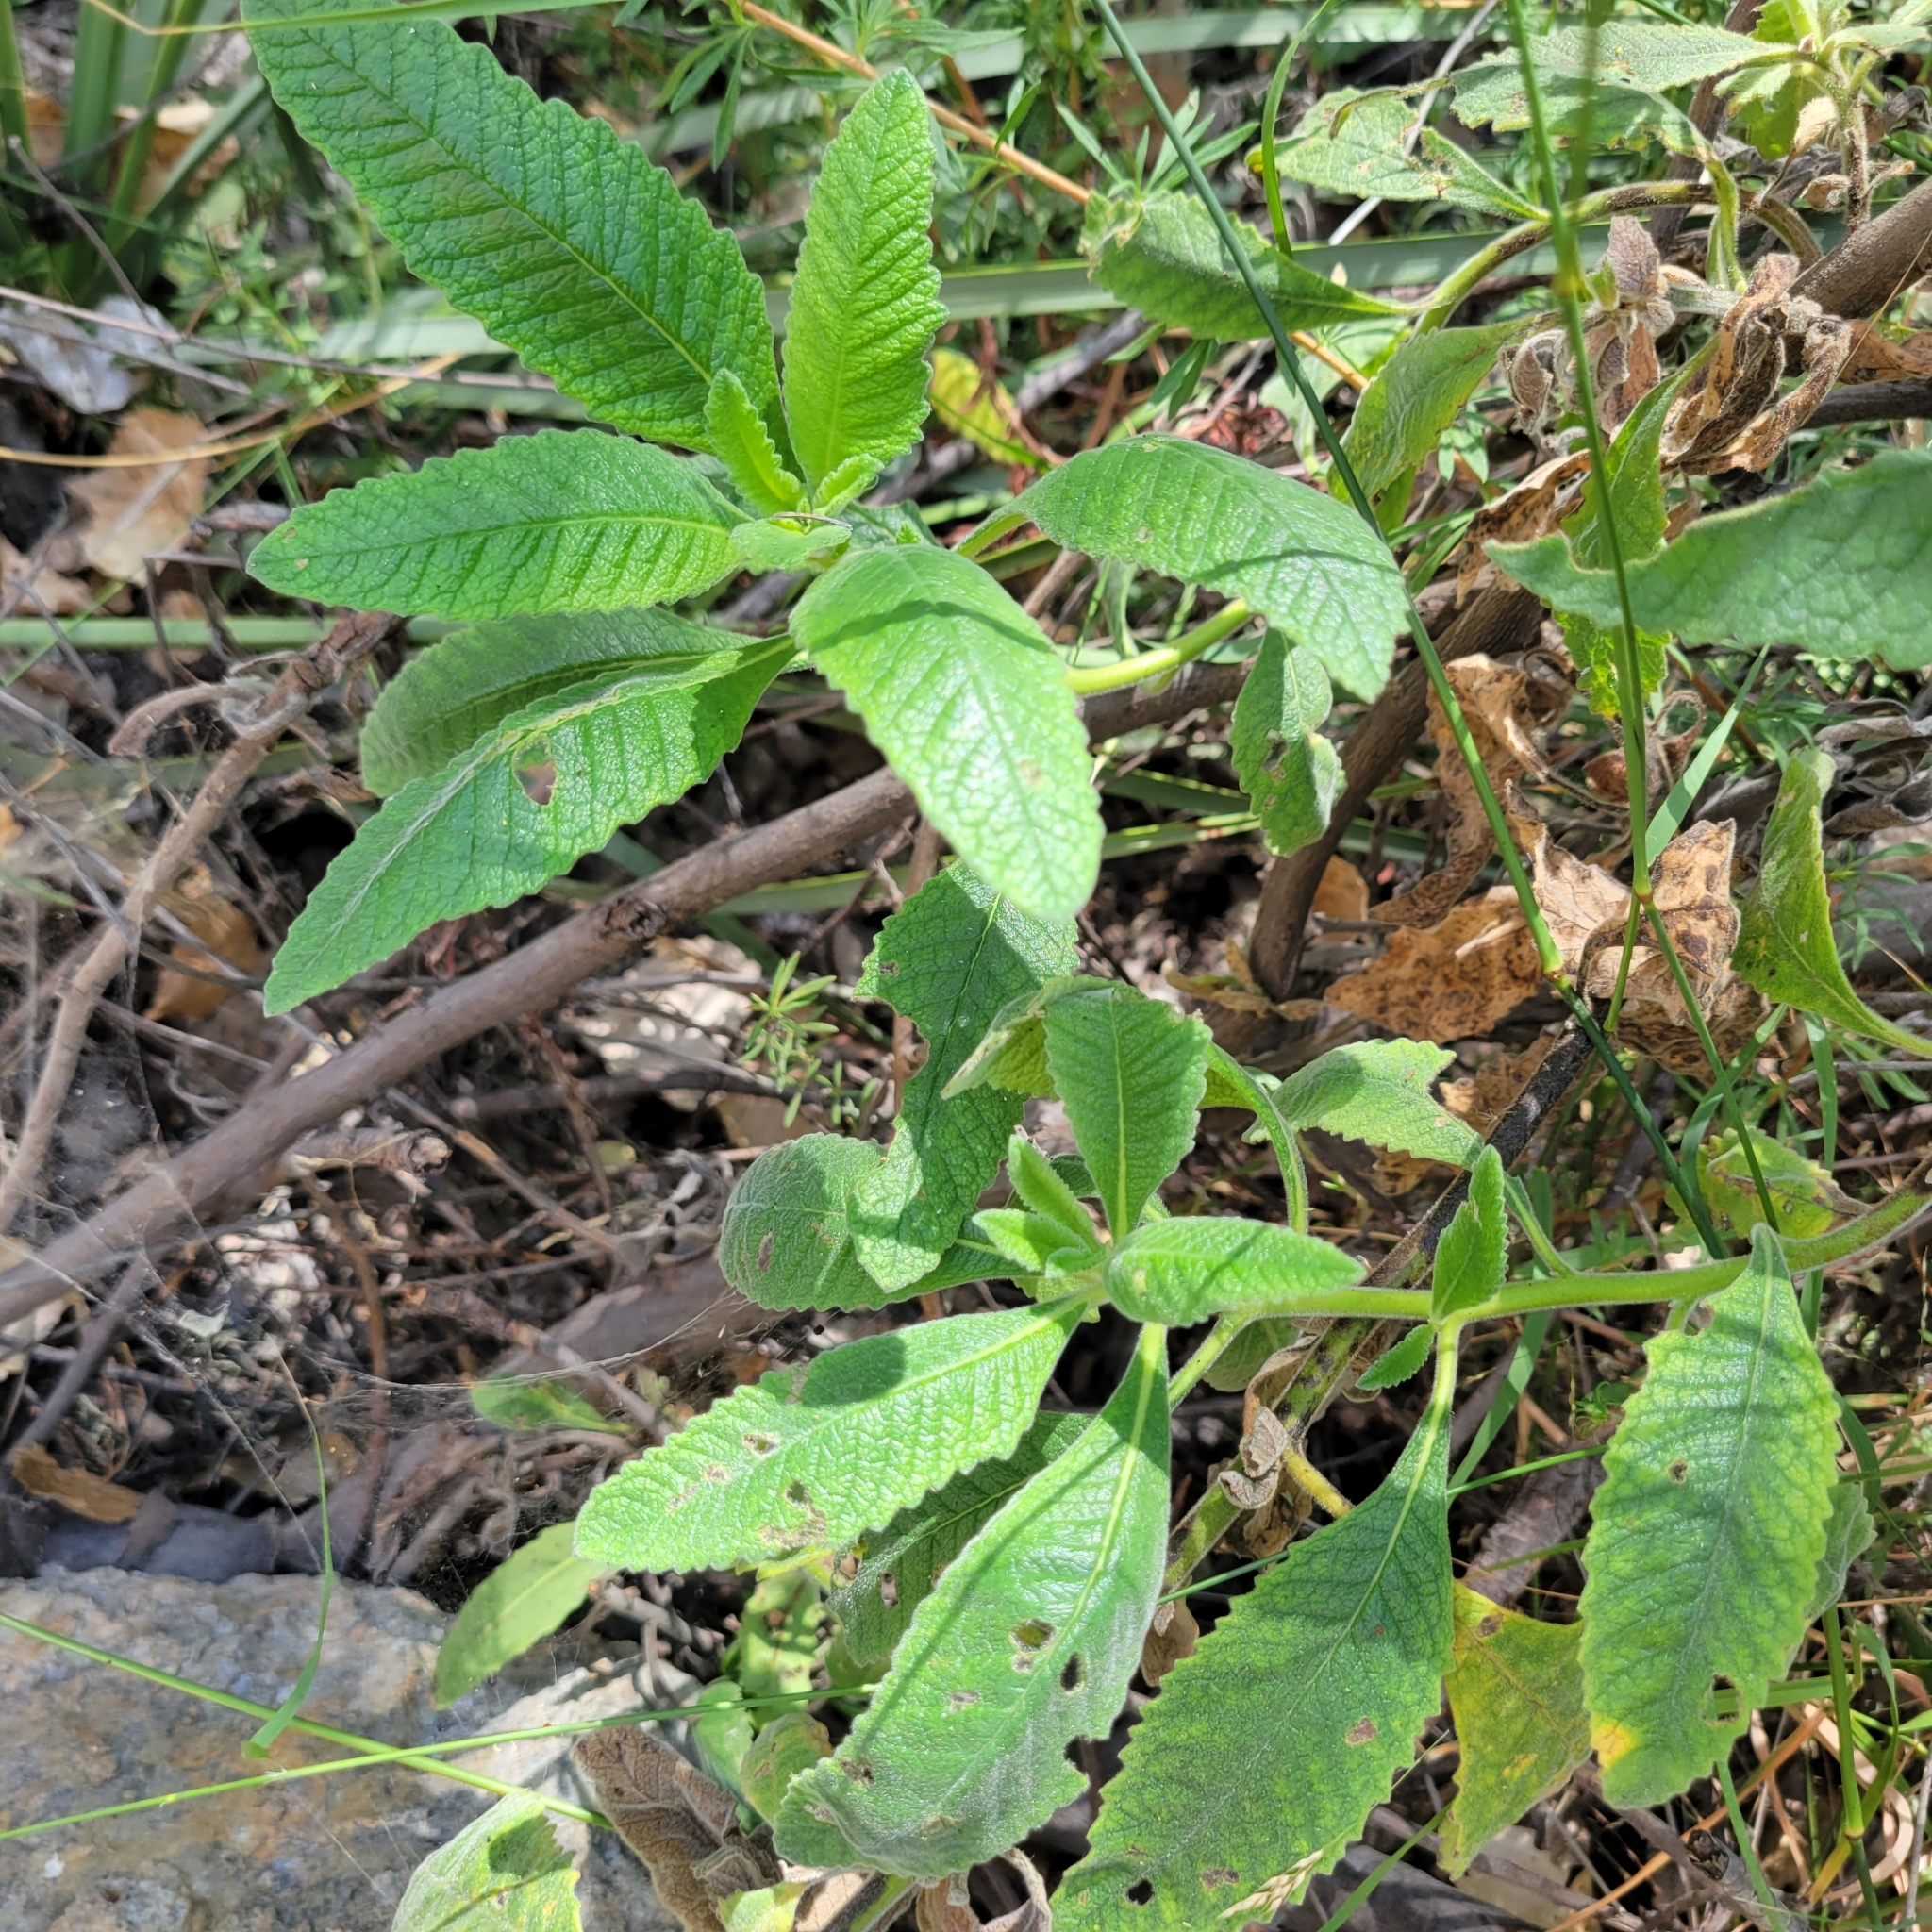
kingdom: Plantae
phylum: Tracheophyta
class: Magnoliopsida
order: Boraginales
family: Namaceae
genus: Eriodictyon
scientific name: Eriodictyon crassifolium
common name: Thick-leaf yerba-santa
